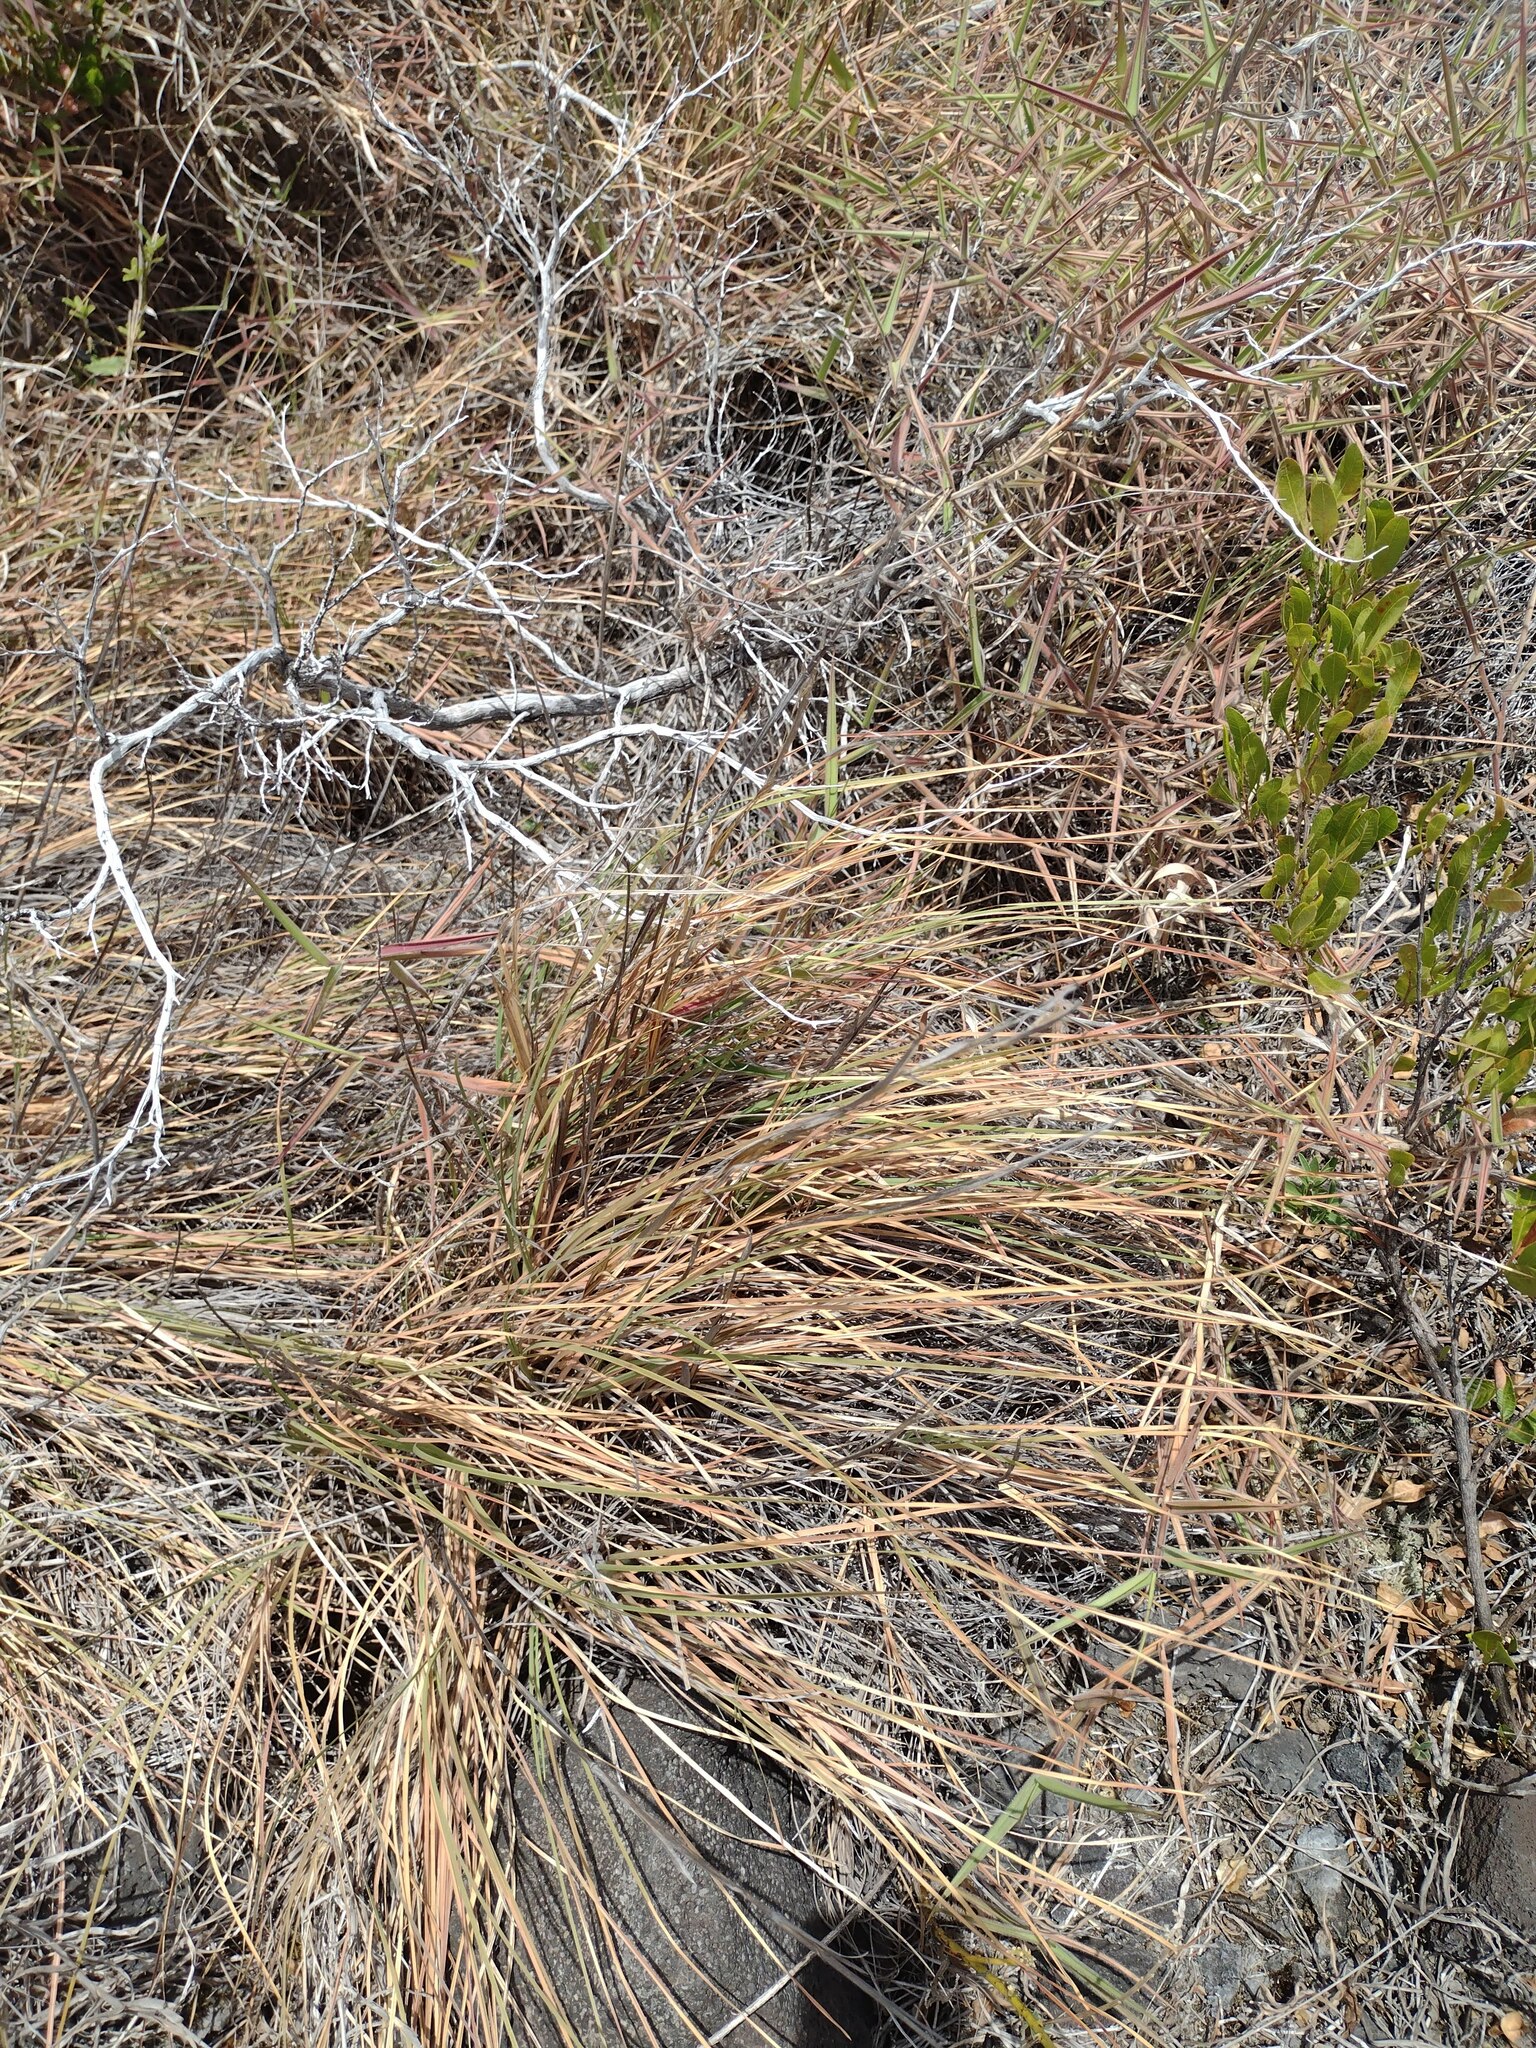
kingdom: Plantae
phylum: Tracheophyta
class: Liliopsida
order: Poales
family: Poaceae
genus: Andropogon
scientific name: Andropogon virginicus
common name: Broomsedge bluestem
